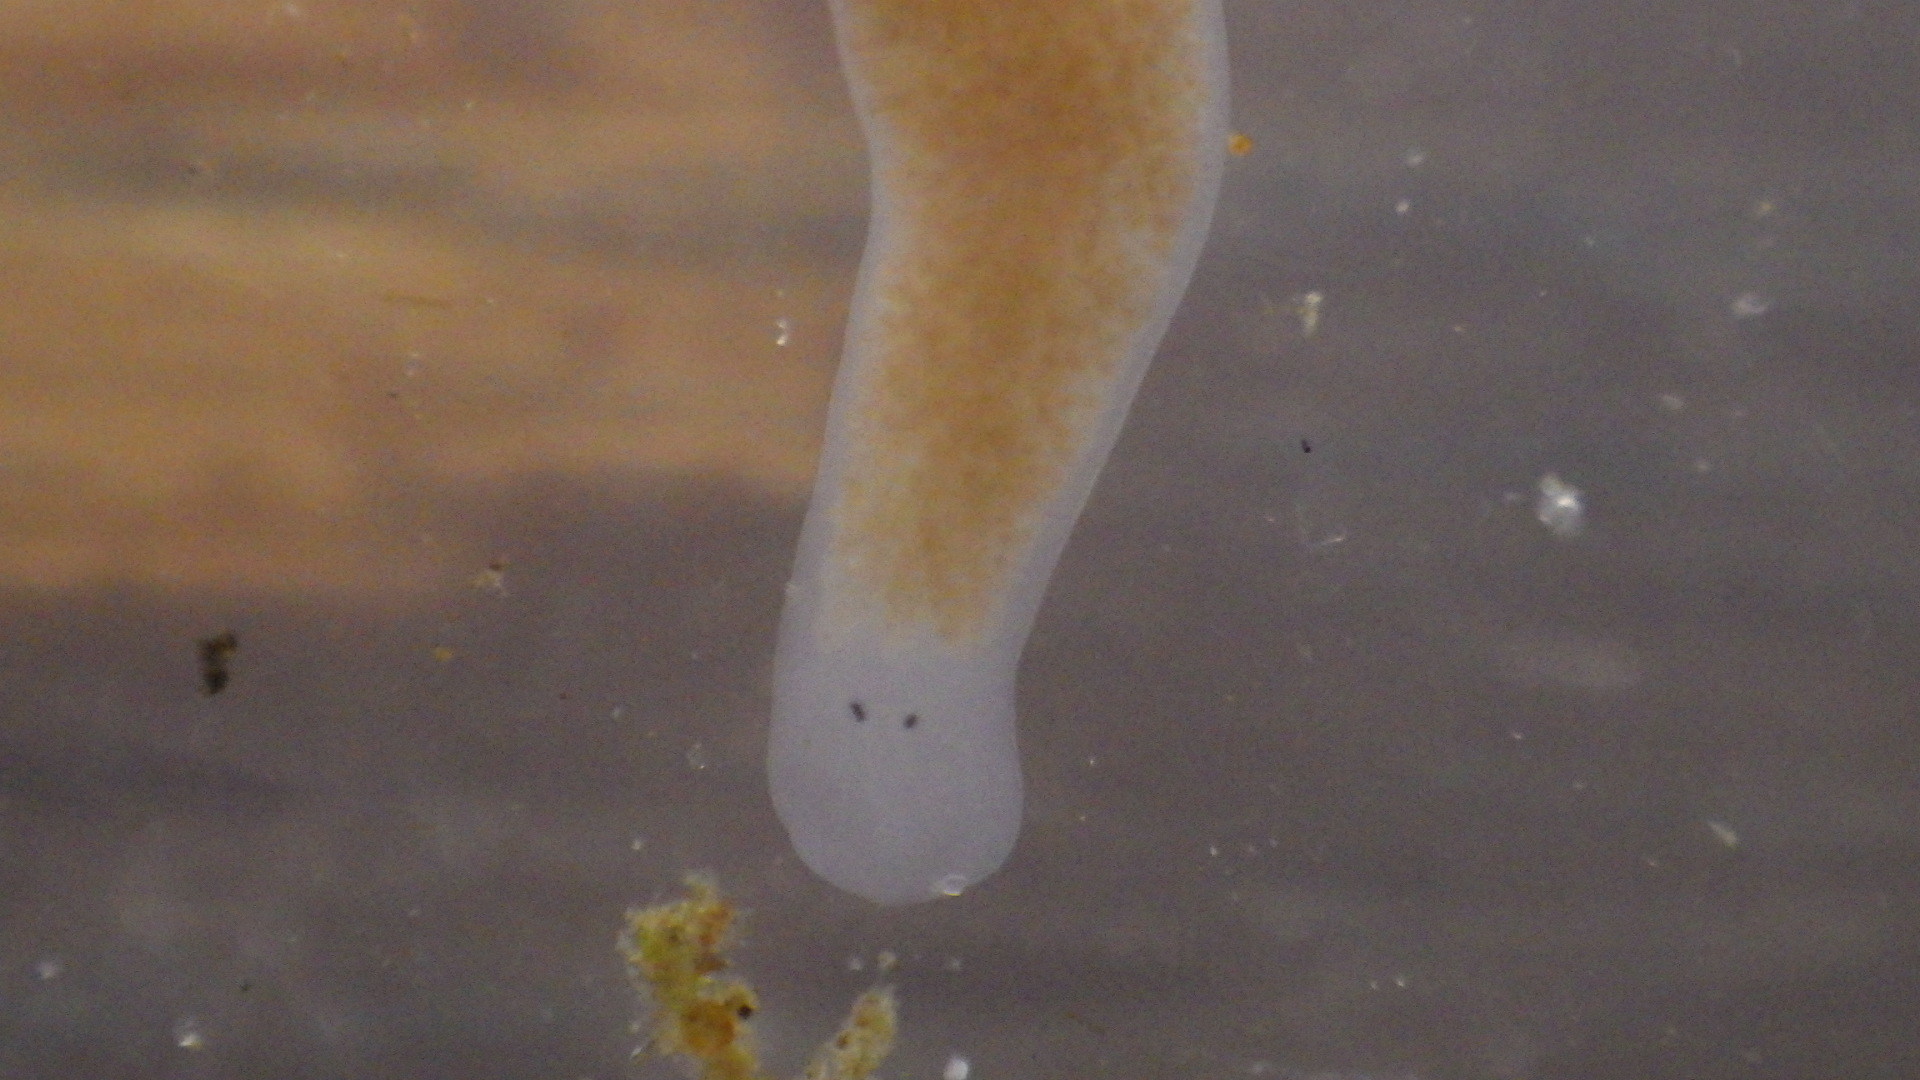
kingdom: Animalia
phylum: Platyhelminthes
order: Tricladida
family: Planariidae
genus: Phagocata
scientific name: Phagocata morgani
